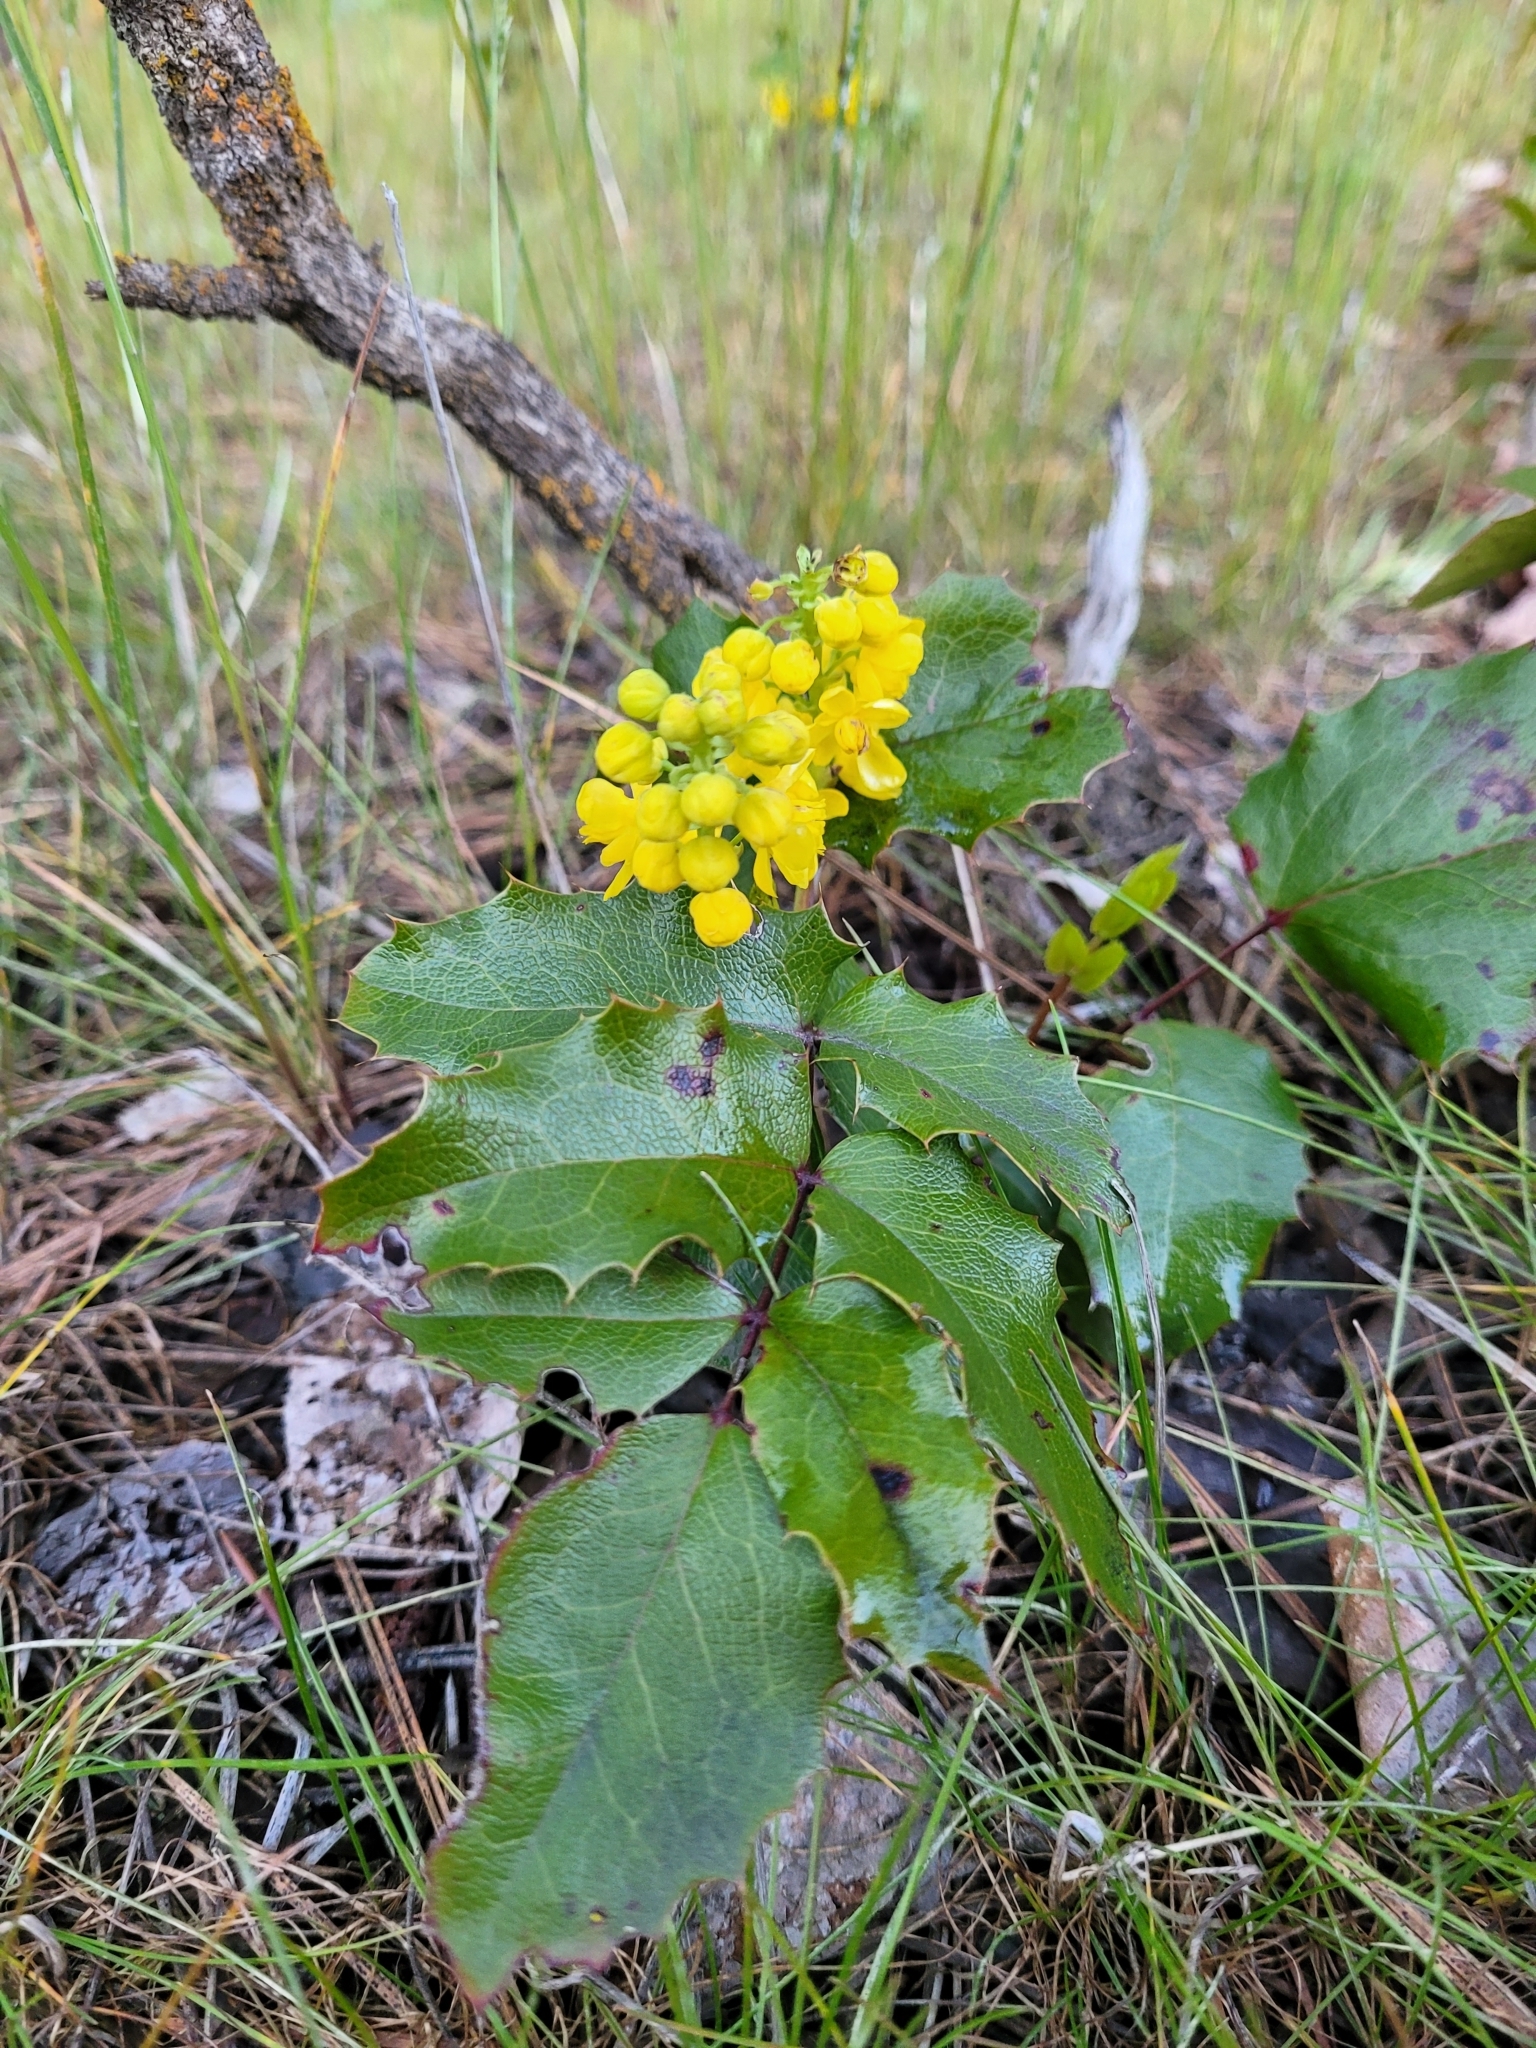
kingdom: Plantae
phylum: Tracheophyta
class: Magnoliopsida
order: Ranunculales
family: Berberidaceae
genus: Mahonia
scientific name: Mahonia aquifolium
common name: Oregon-grape
